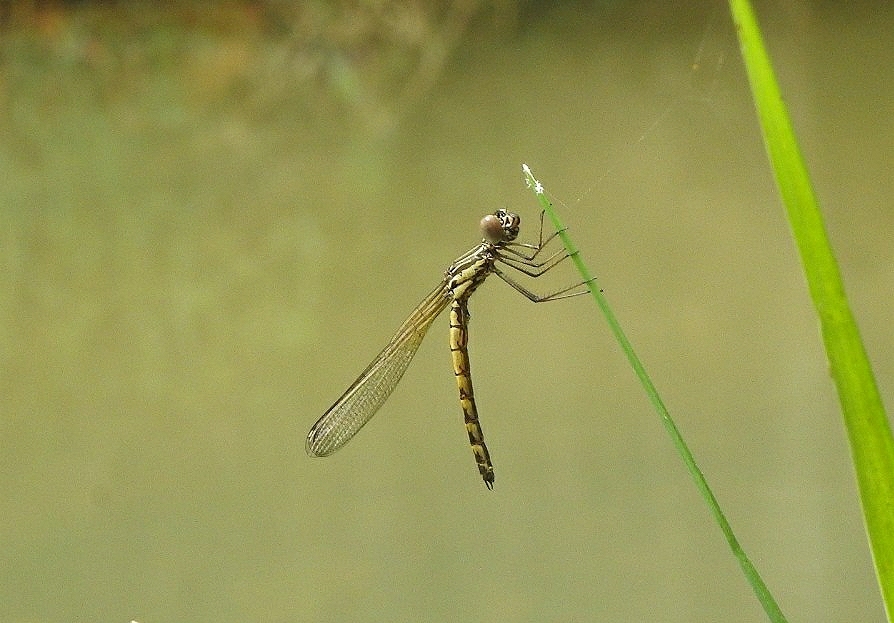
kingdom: Animalia
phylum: Arthropoda
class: Insecta
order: Odonata
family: Chlorocyphidae
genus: Libellago
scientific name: Libellago indica
